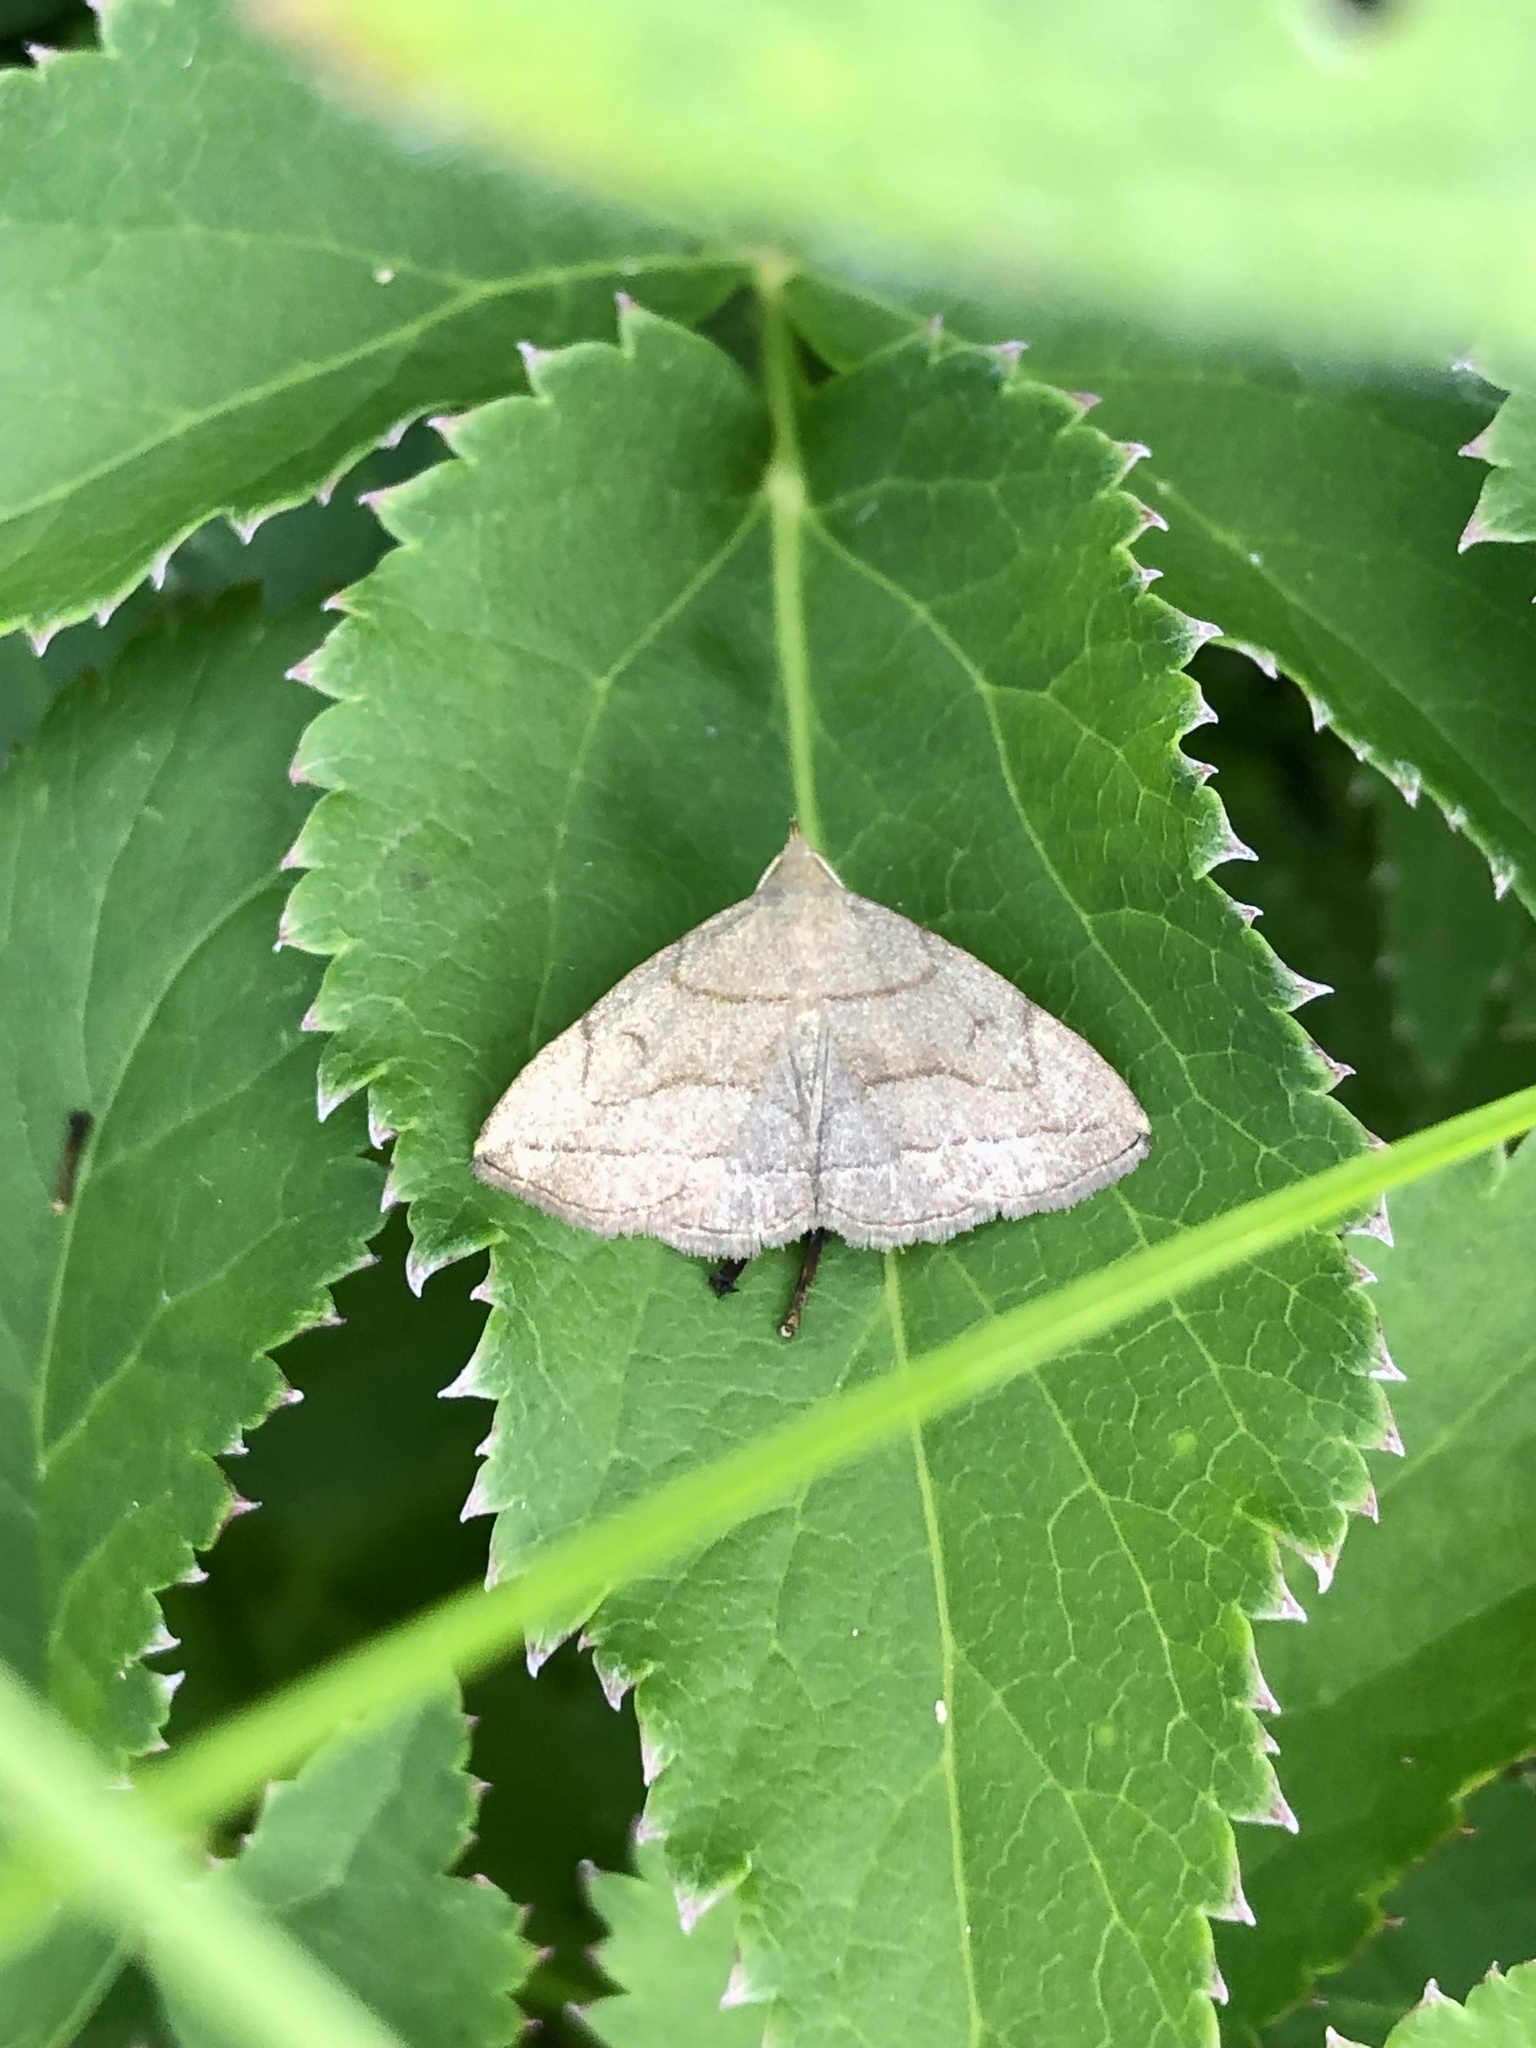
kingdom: Animalia
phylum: Arthropoda
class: Insecta
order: Lepidoptera
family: Erebidae
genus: Zanclognatha
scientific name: Zanclognatha pedipilalis
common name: Grayish fan-foot
